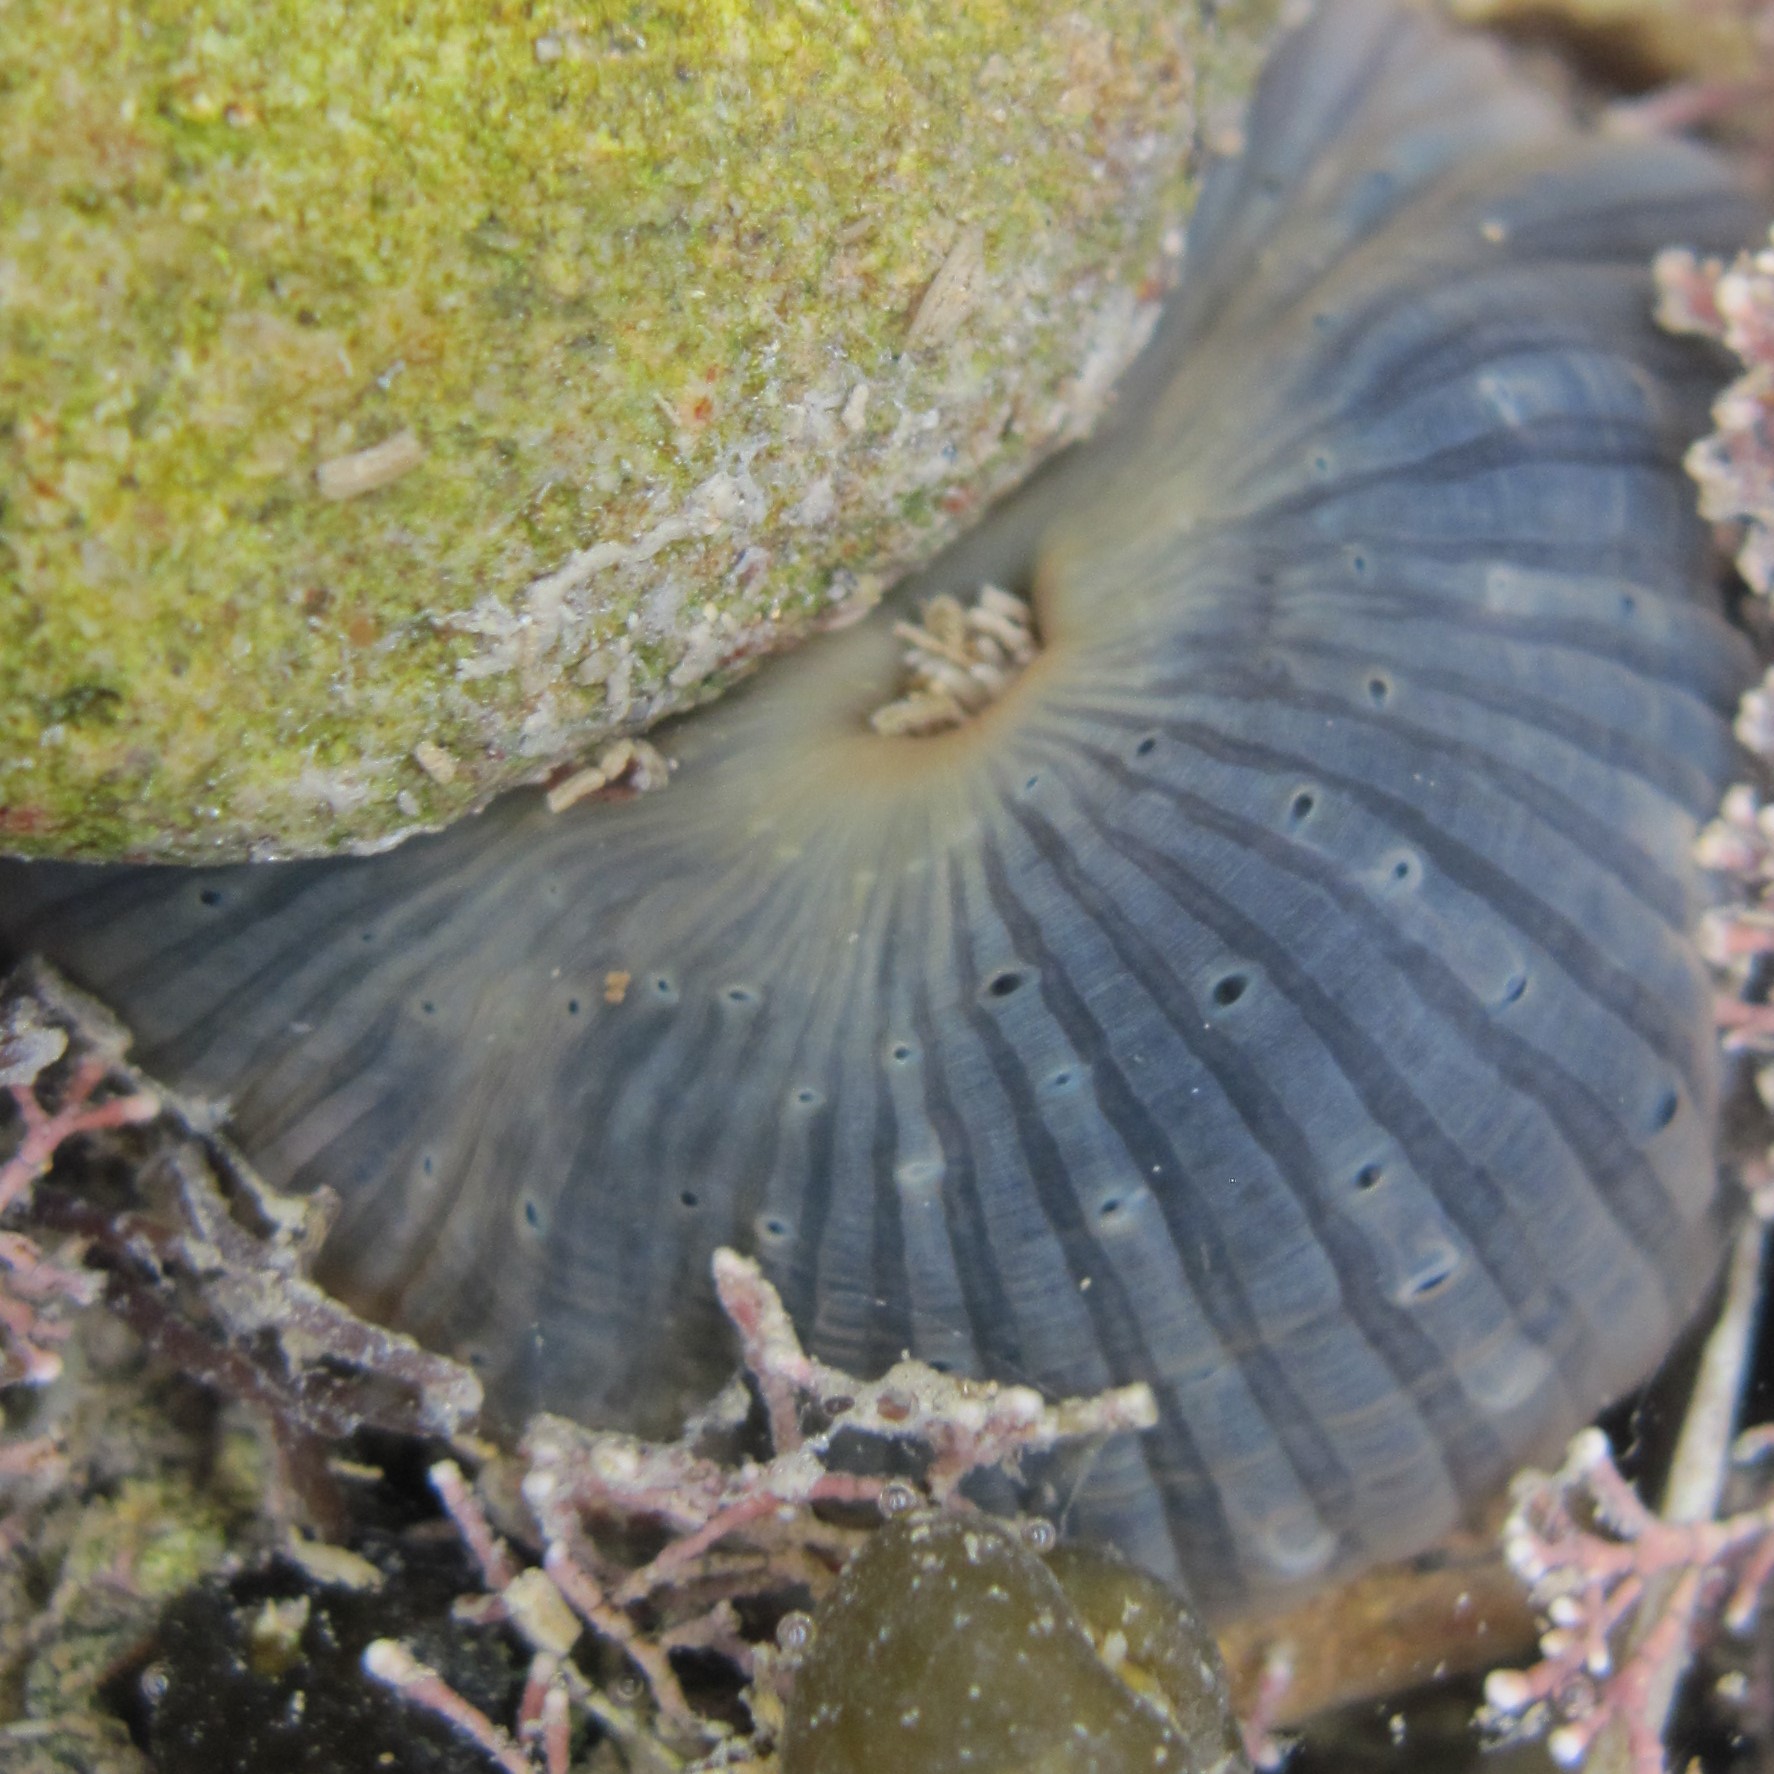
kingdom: Animalia
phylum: Cnidaria
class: Anthozoa
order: Actiniaria
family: Diadumenidae
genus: Diadumene
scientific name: Diadumene neozelanica
